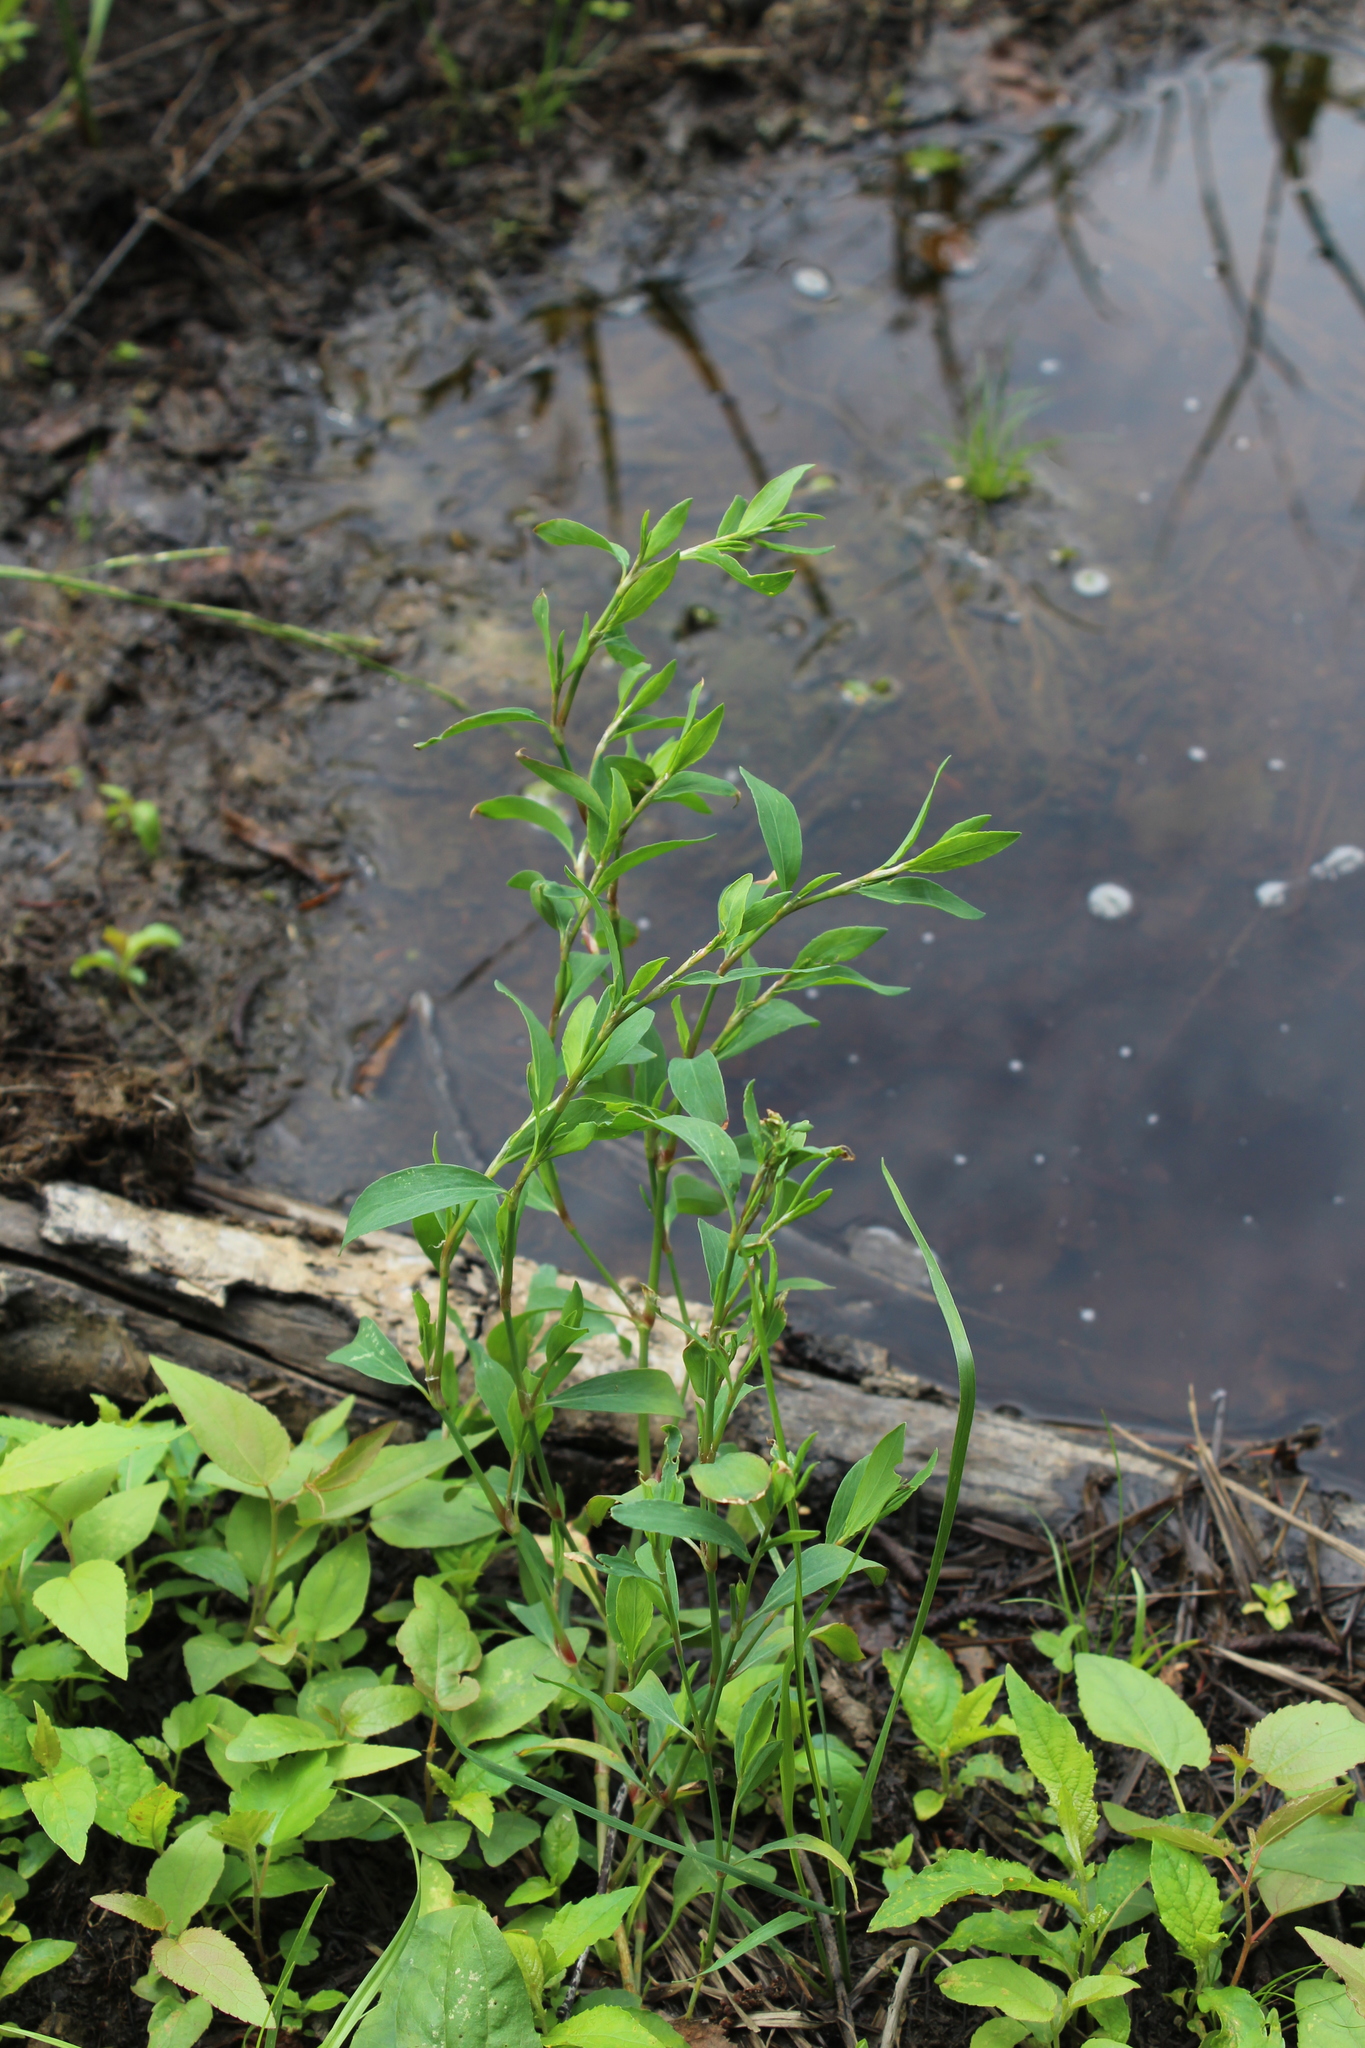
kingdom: Plantae
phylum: Tracheophyta
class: Magnoliopsida
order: Caryophyllales
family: Polygonaceae
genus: Polygonum
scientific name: Polygonum
